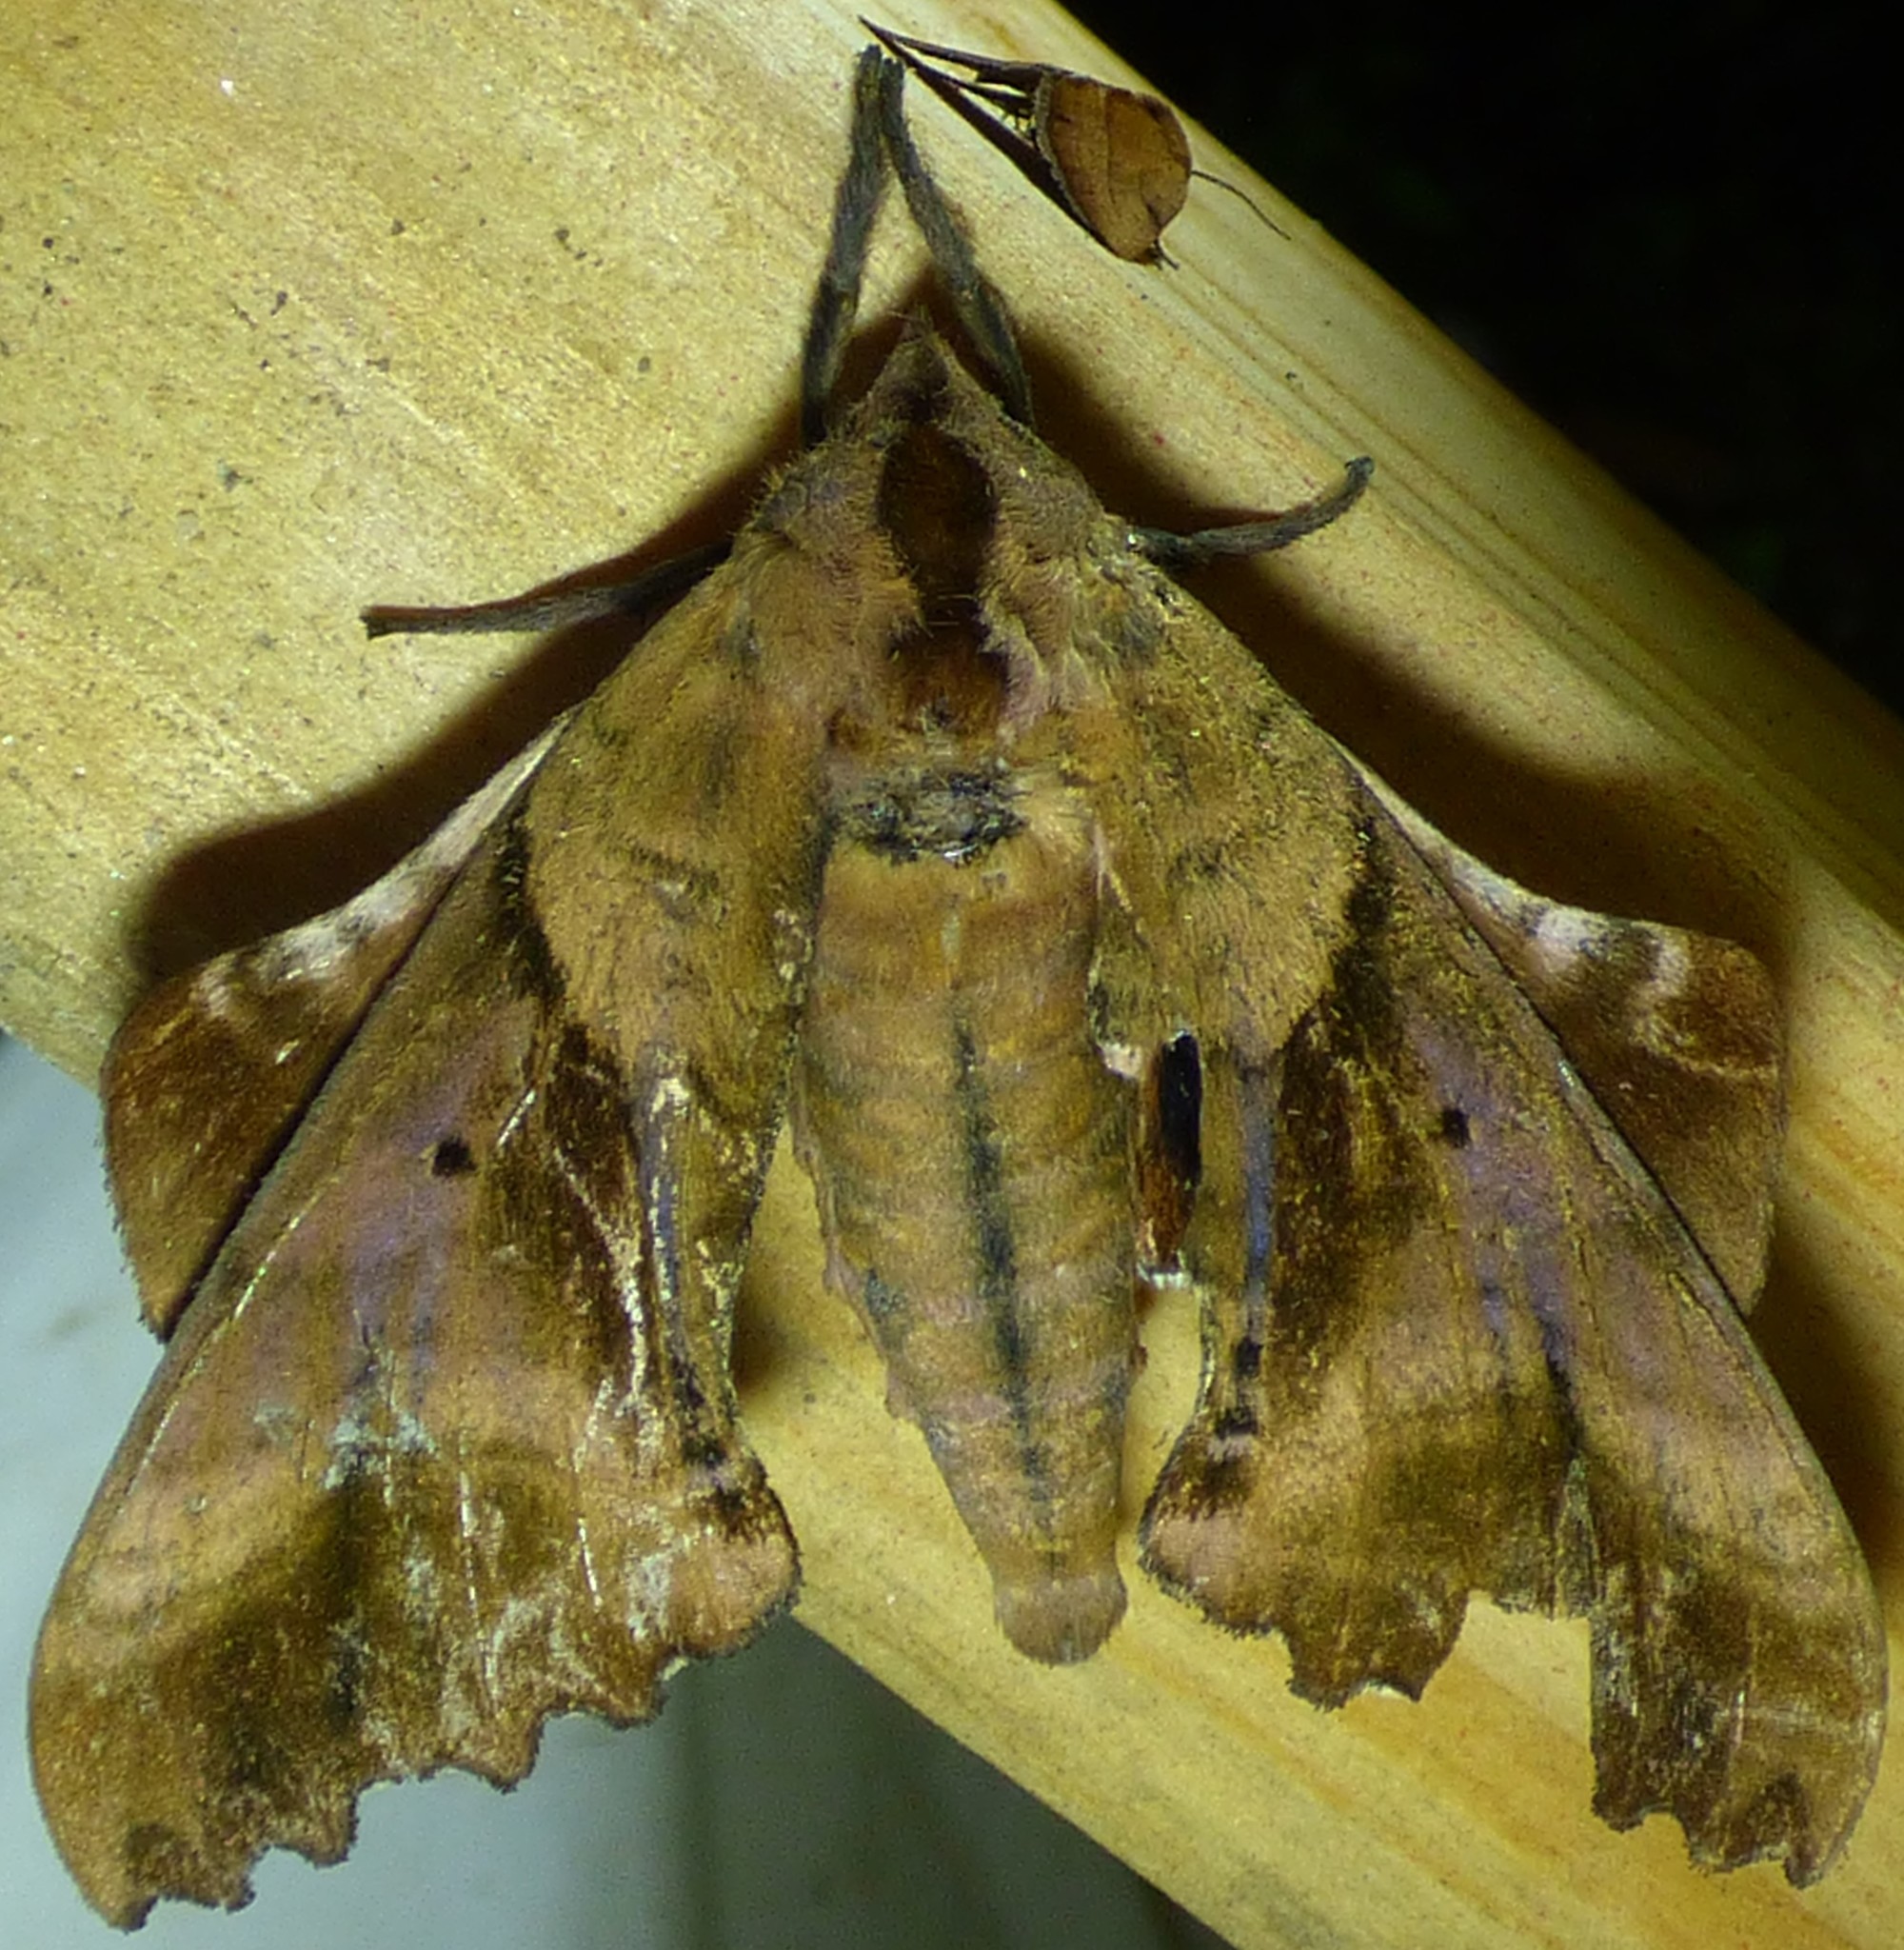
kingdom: Animalia
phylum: Arthropoda
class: Insecta
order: Lepidoptera
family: Sphingidae
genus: Paonias
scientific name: Paonias excaecata
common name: Blind-eyed sphinx
